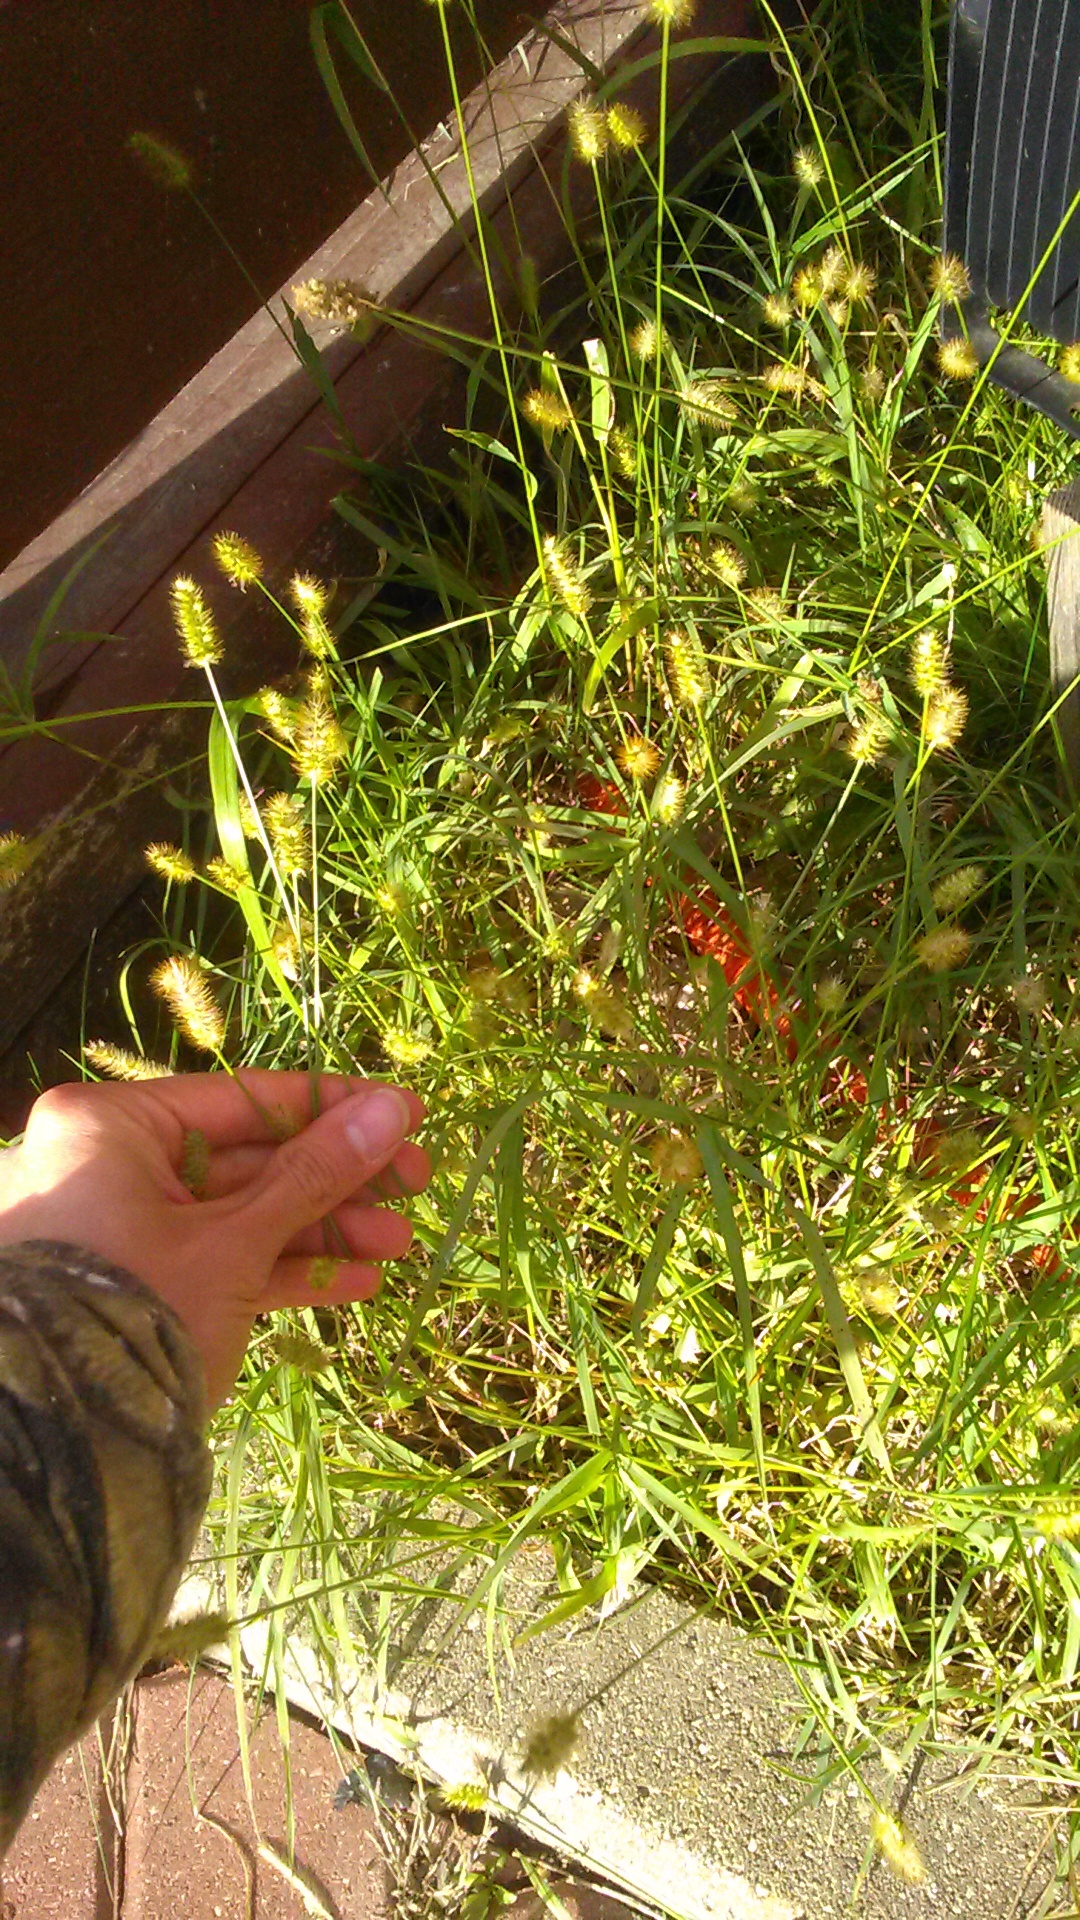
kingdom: Plantae
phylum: Tracheophyta
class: Liliopsida
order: Poales
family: Poaceae
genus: Setaria
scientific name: Setaria pumila
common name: Yellow bristle-grass
